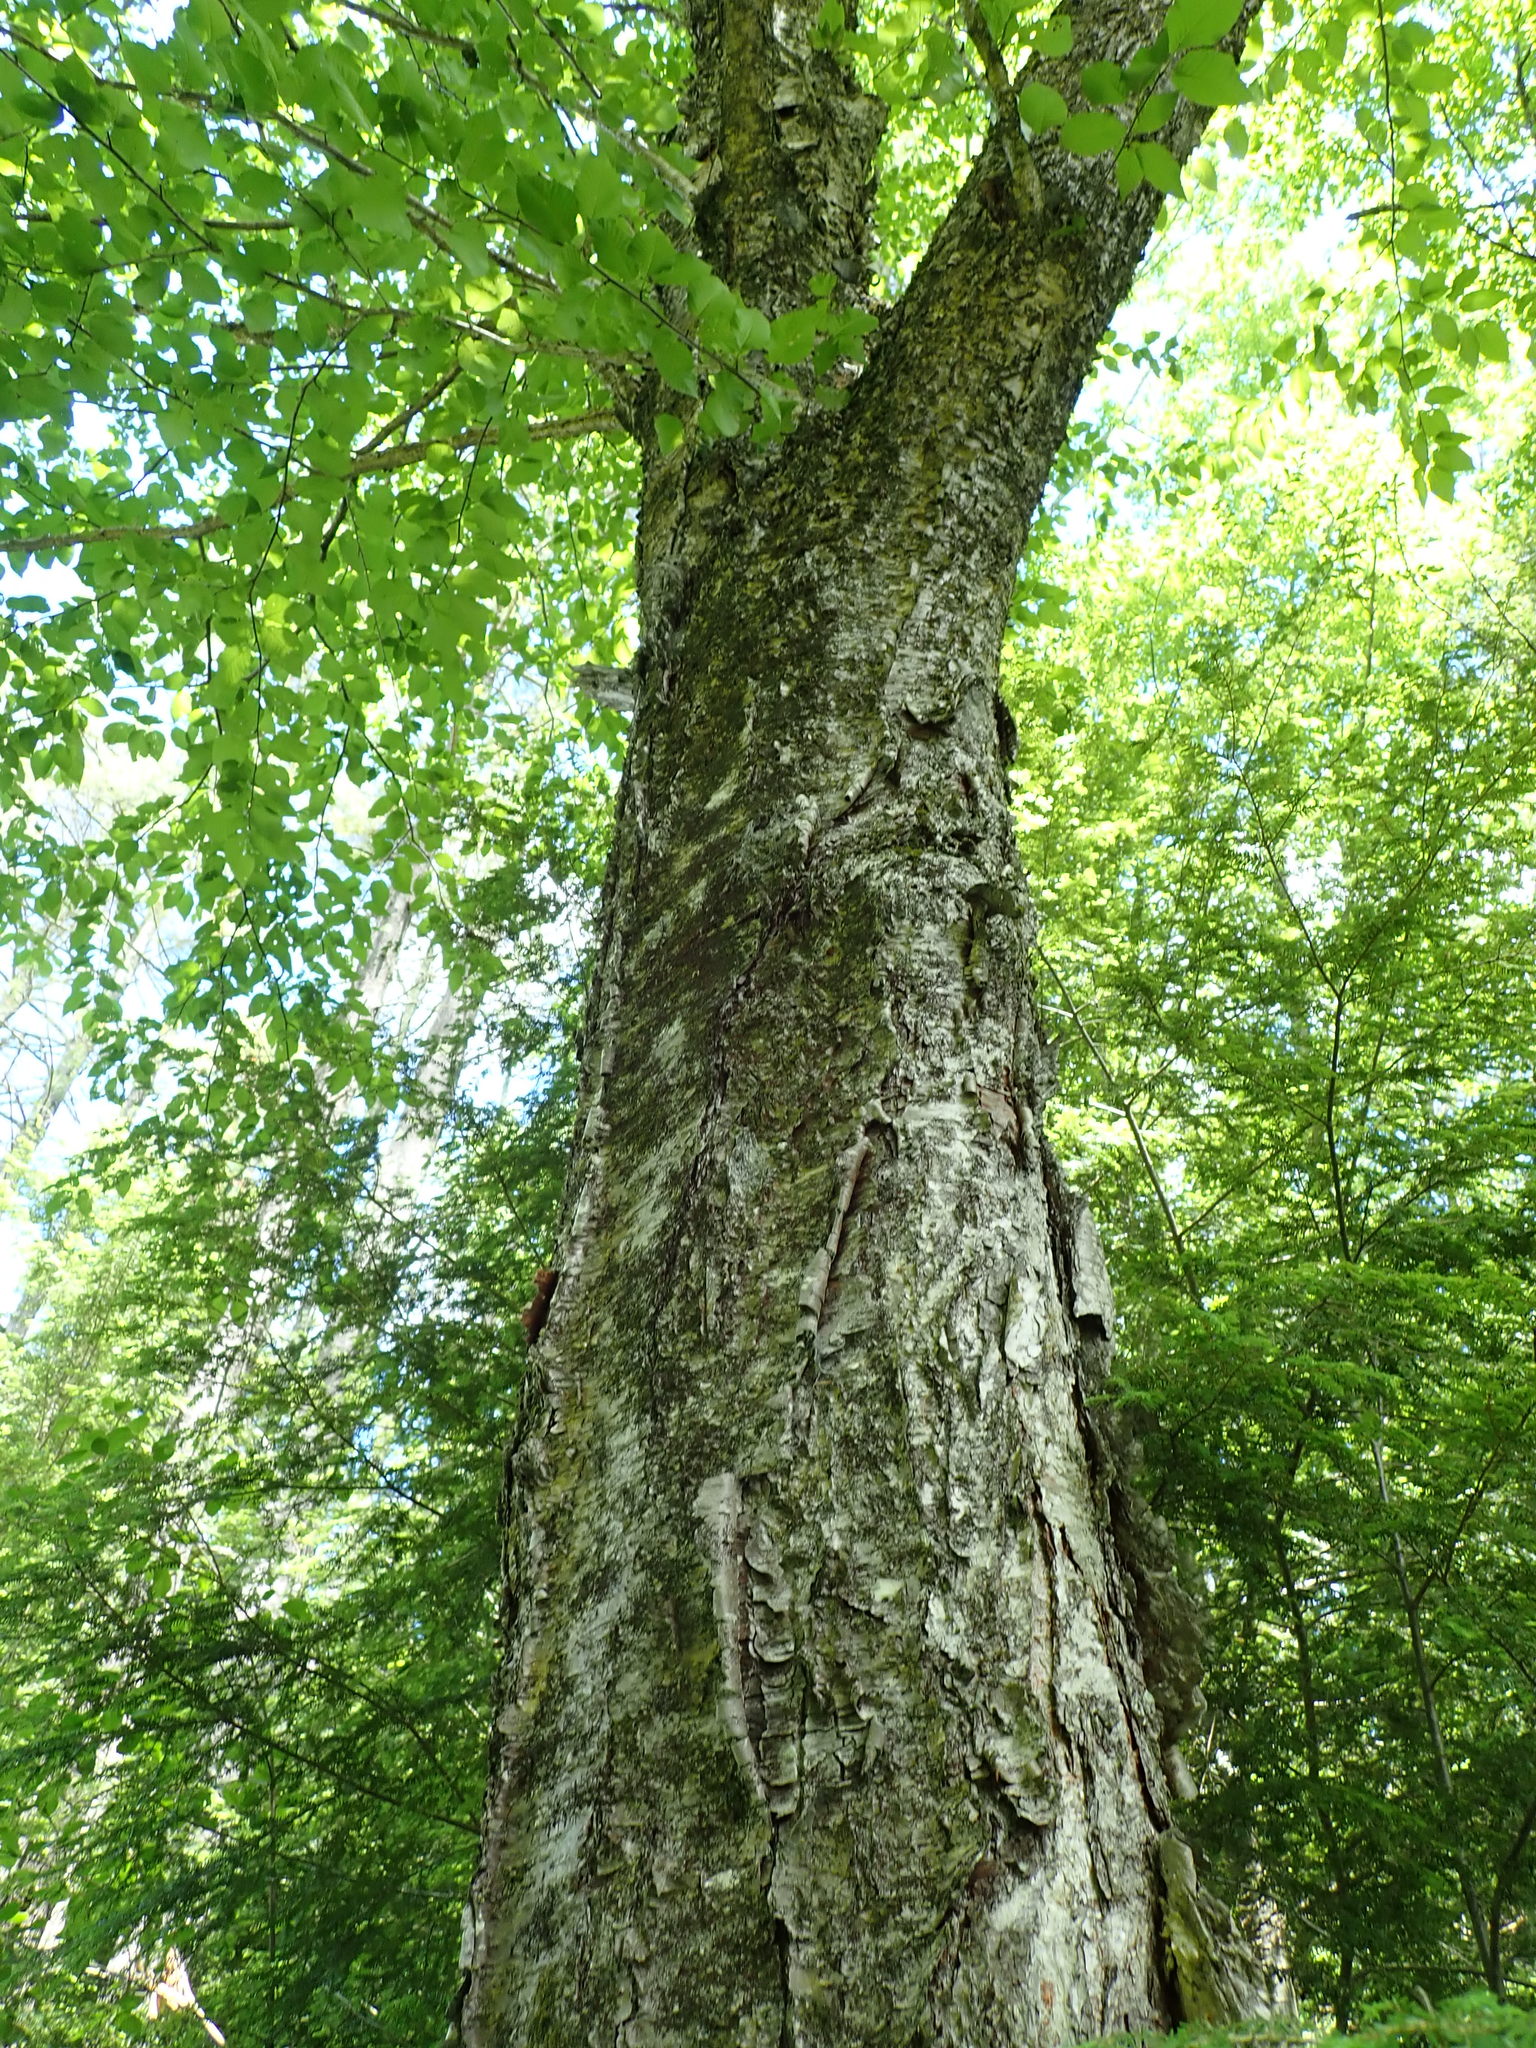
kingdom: Plantae
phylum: Tracheophyta
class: Magnoliopsida
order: Fagales
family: Betulaceae
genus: Betula
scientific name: Betula alleghaniensis
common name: Yellow birch
